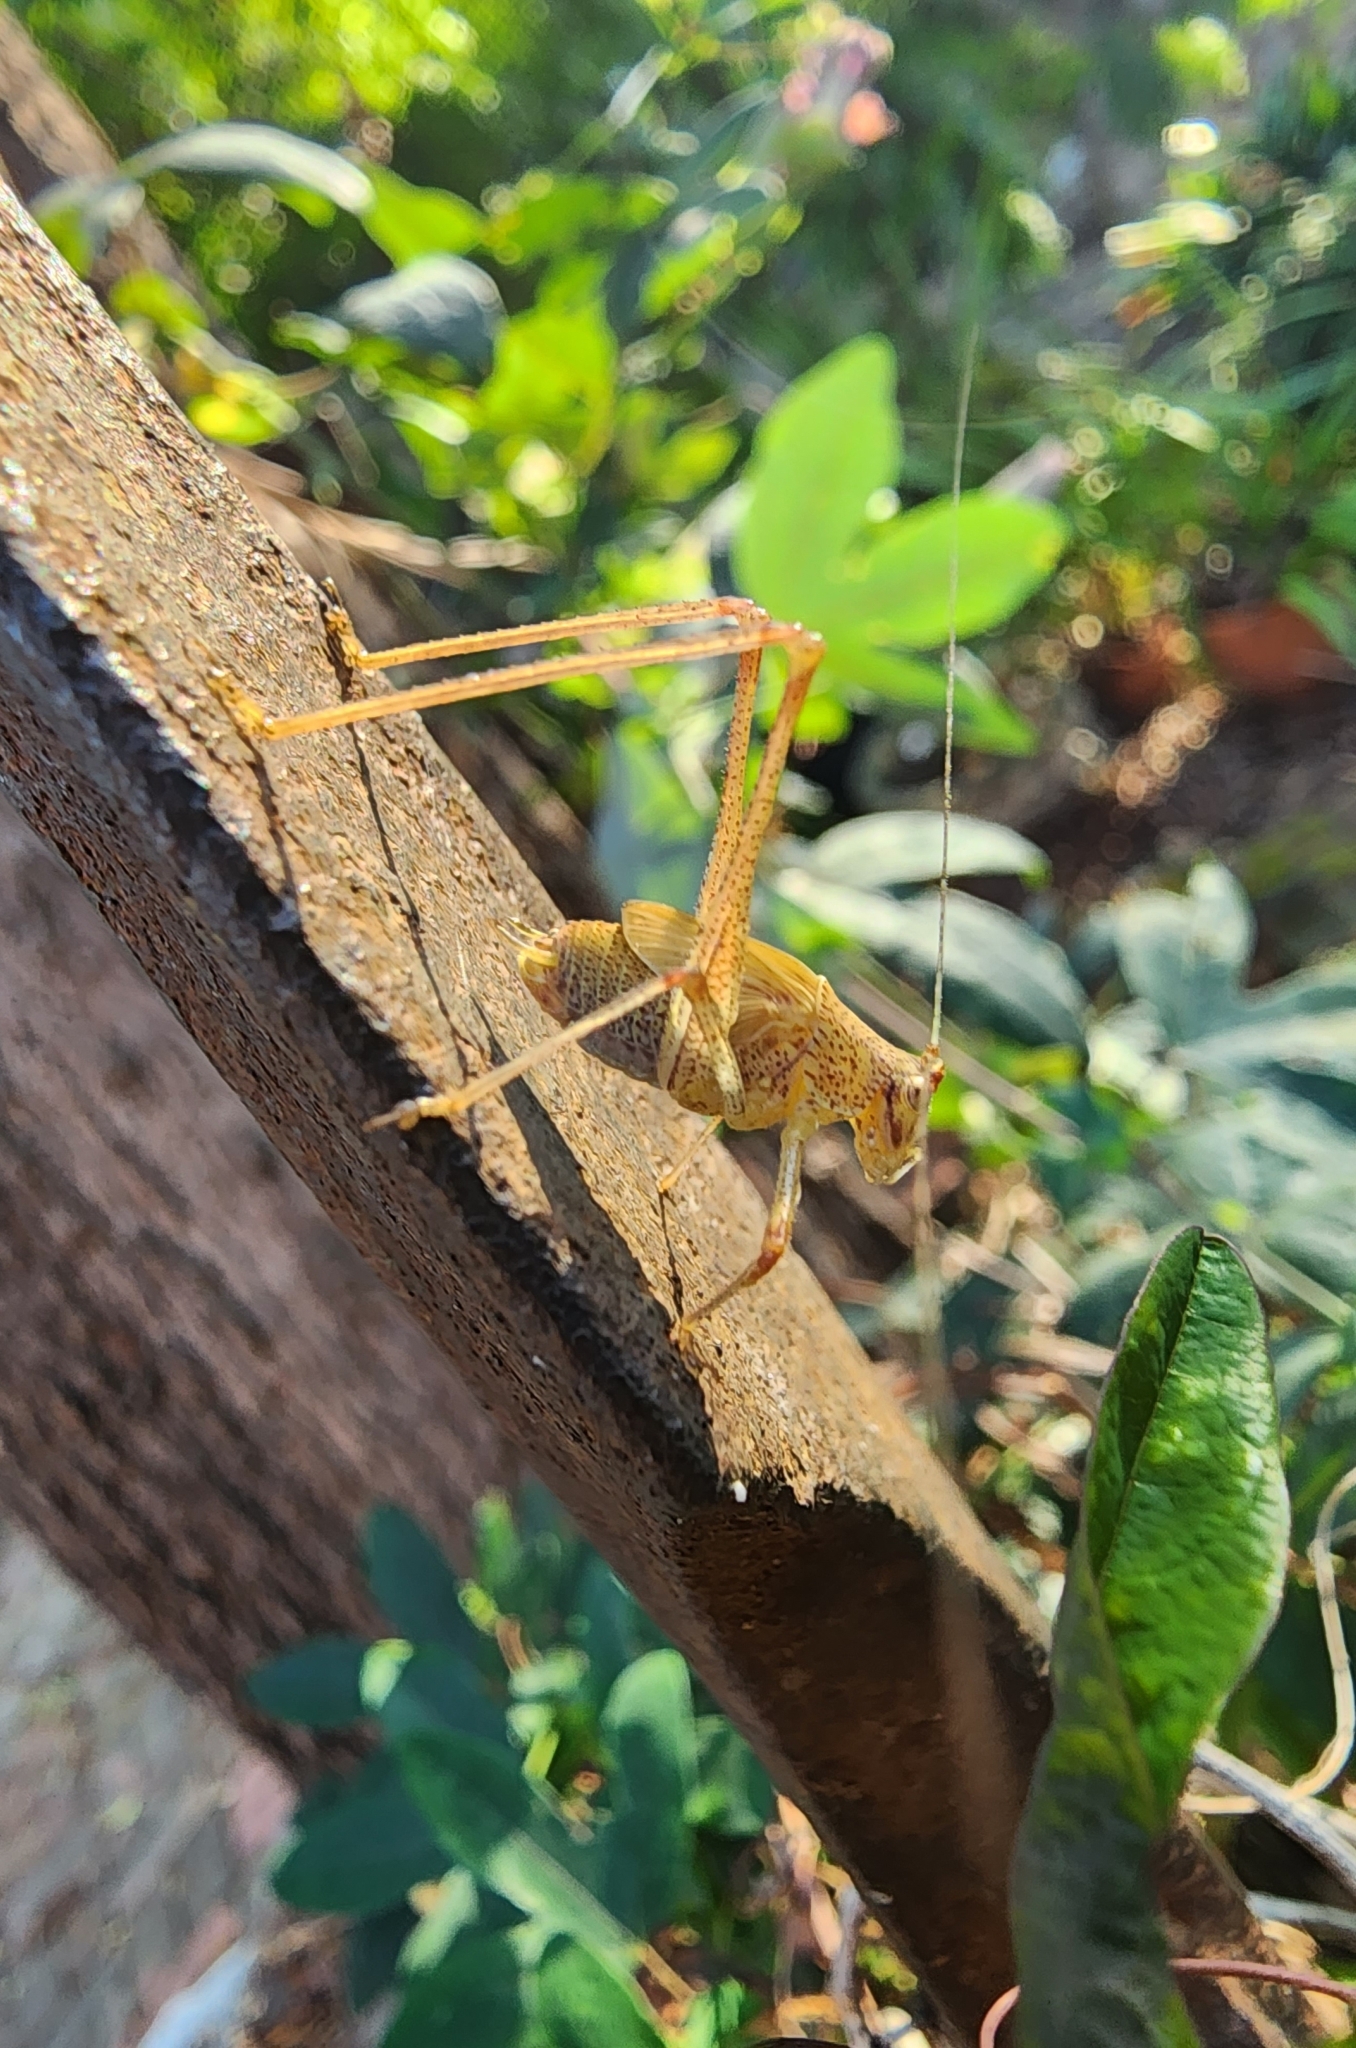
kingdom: Animalia
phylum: Arthropoda
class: Insecta
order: Orthoptera
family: Tettigoniidae
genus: Phaneroptera
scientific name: Phaneroptera nana
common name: Southern sickle bush-cricket
